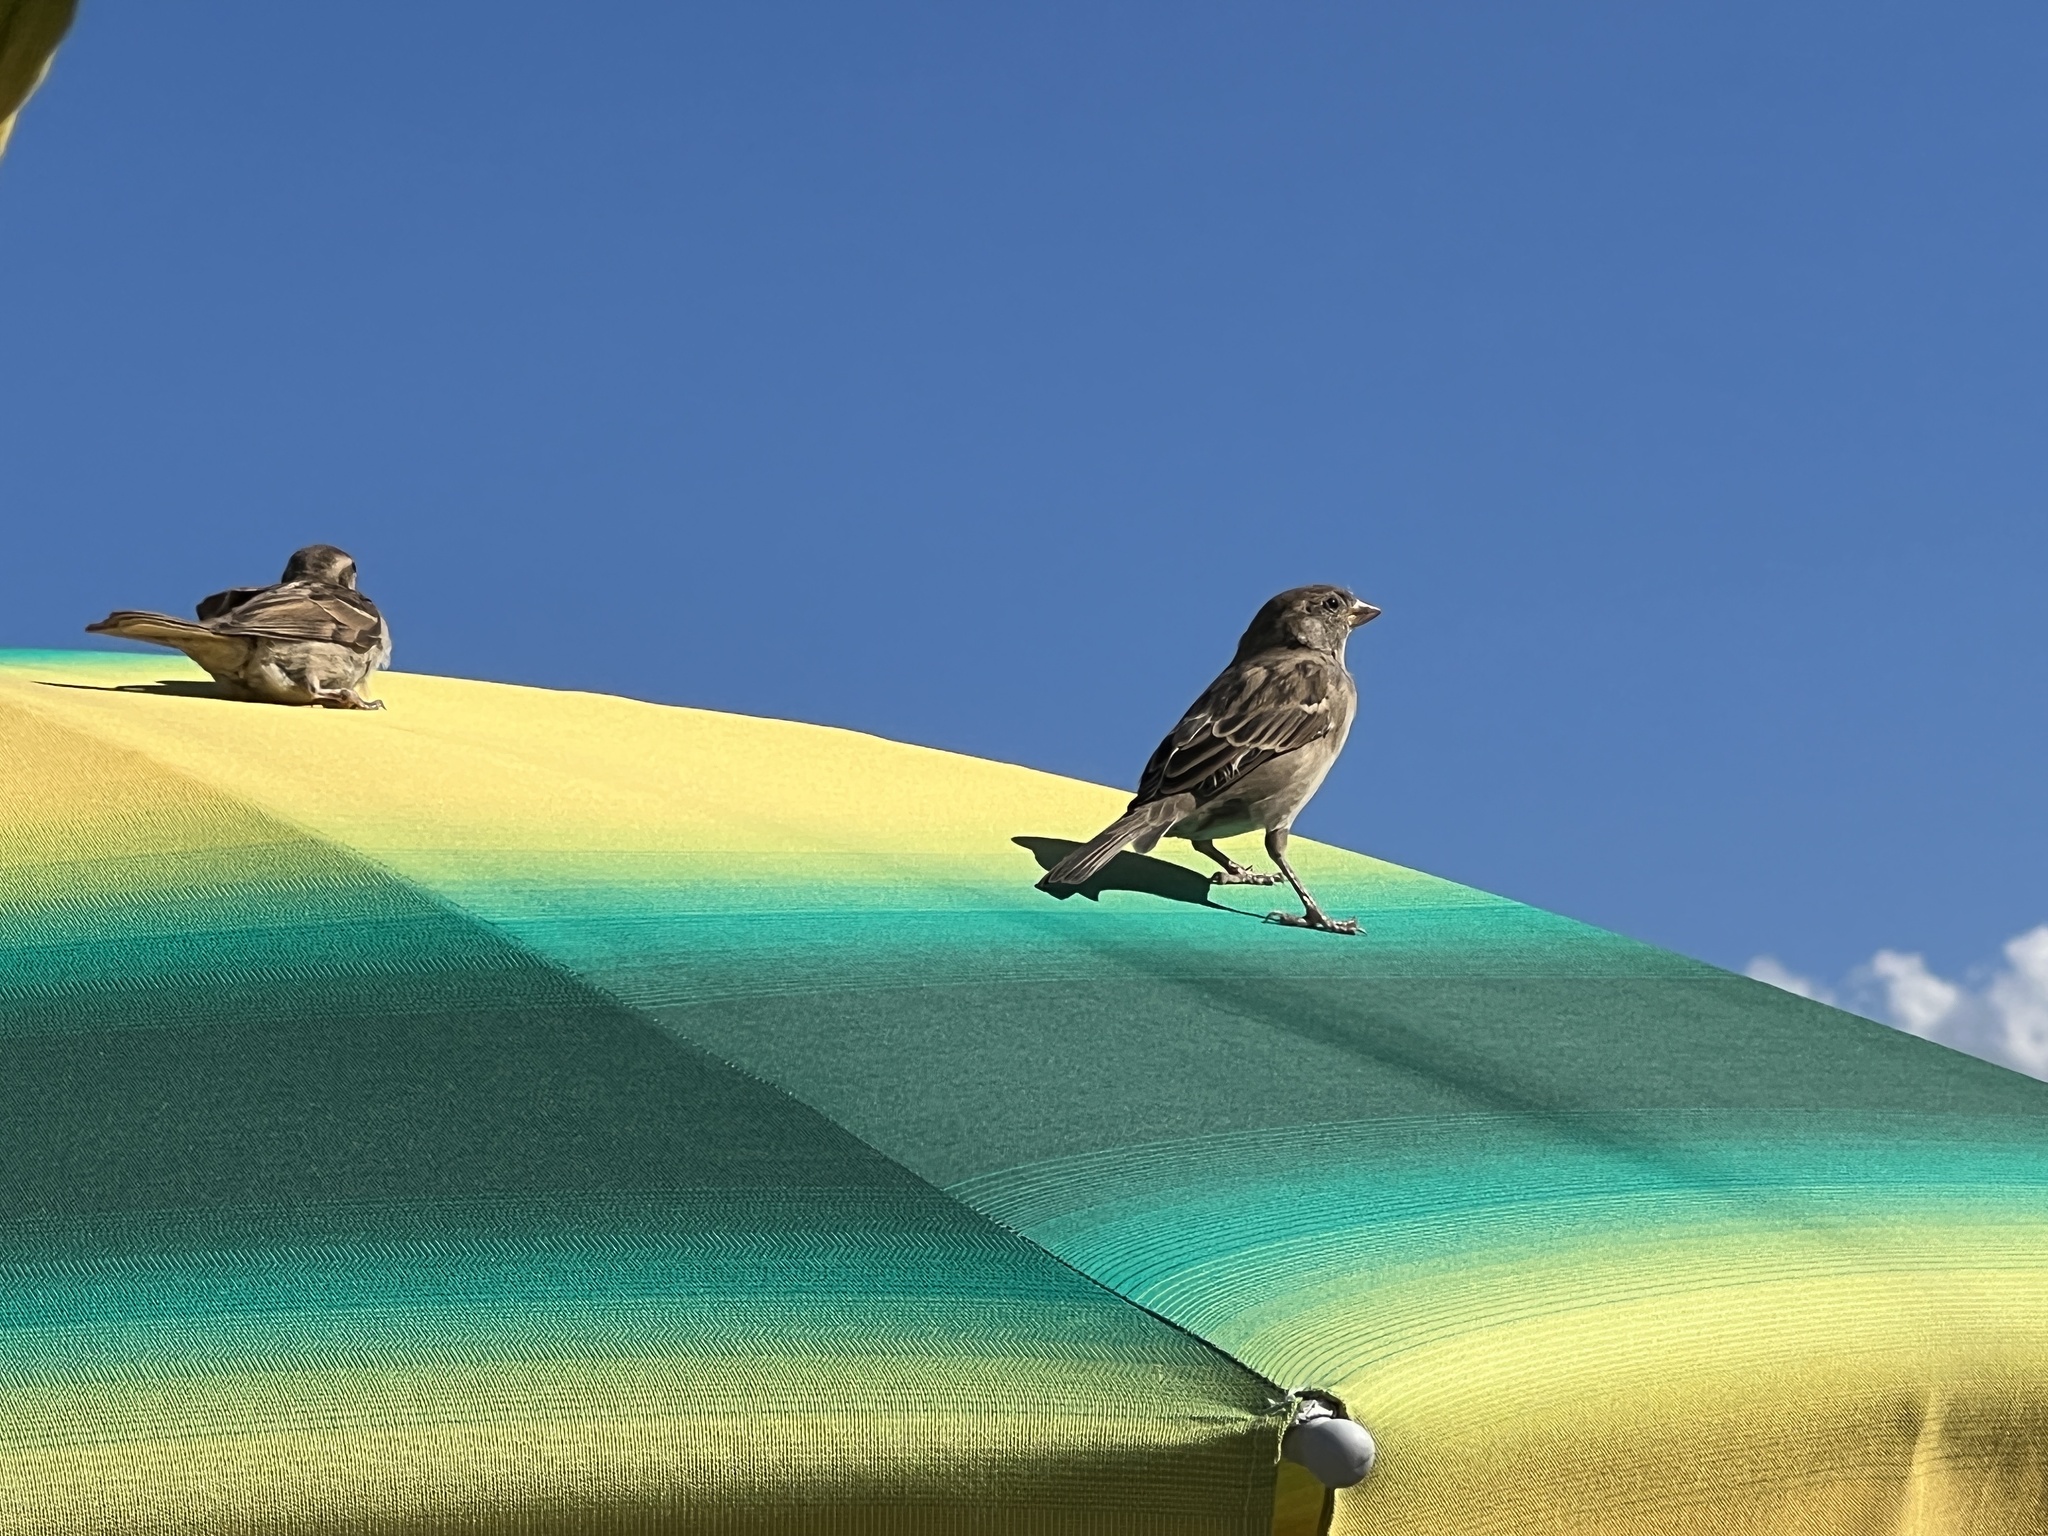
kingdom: Animalia
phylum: Chordata
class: Aves
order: Passeriformes
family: Passeridae
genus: Passer
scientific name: Passer italiae
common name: Italian sparrow
